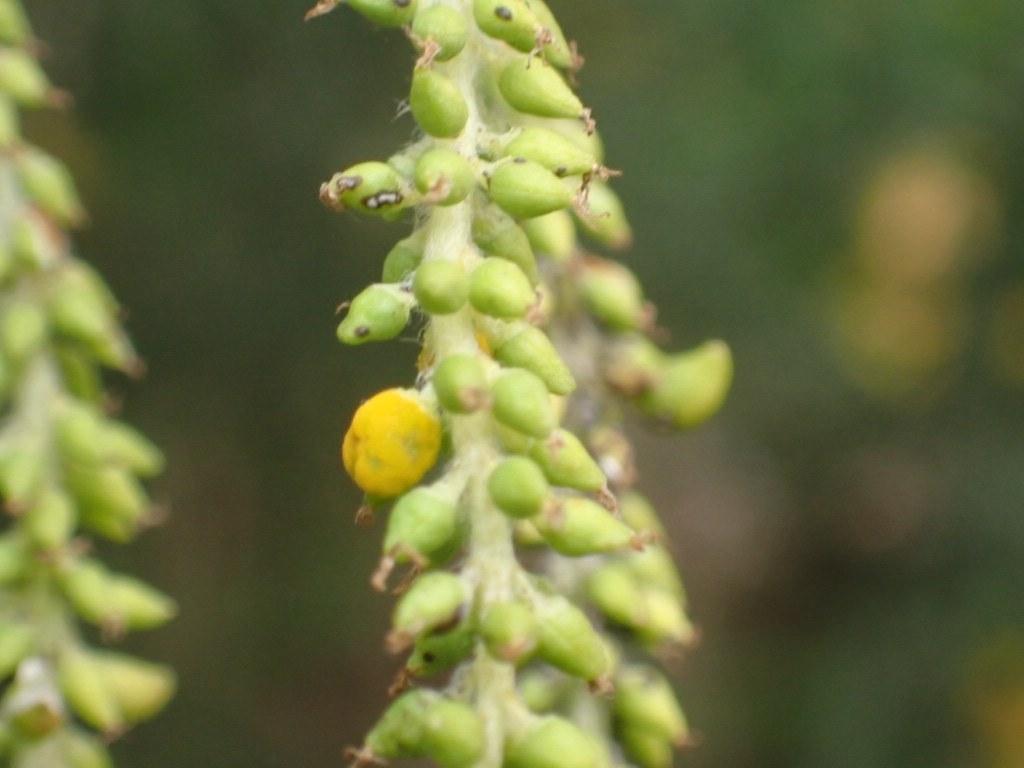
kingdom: Fungi
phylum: Ascomycota
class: Taphrinomycetes
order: Taphrinales
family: Taphrinaceae
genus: Taphrina
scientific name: Taphrina johansonii
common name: Aspen tongue
